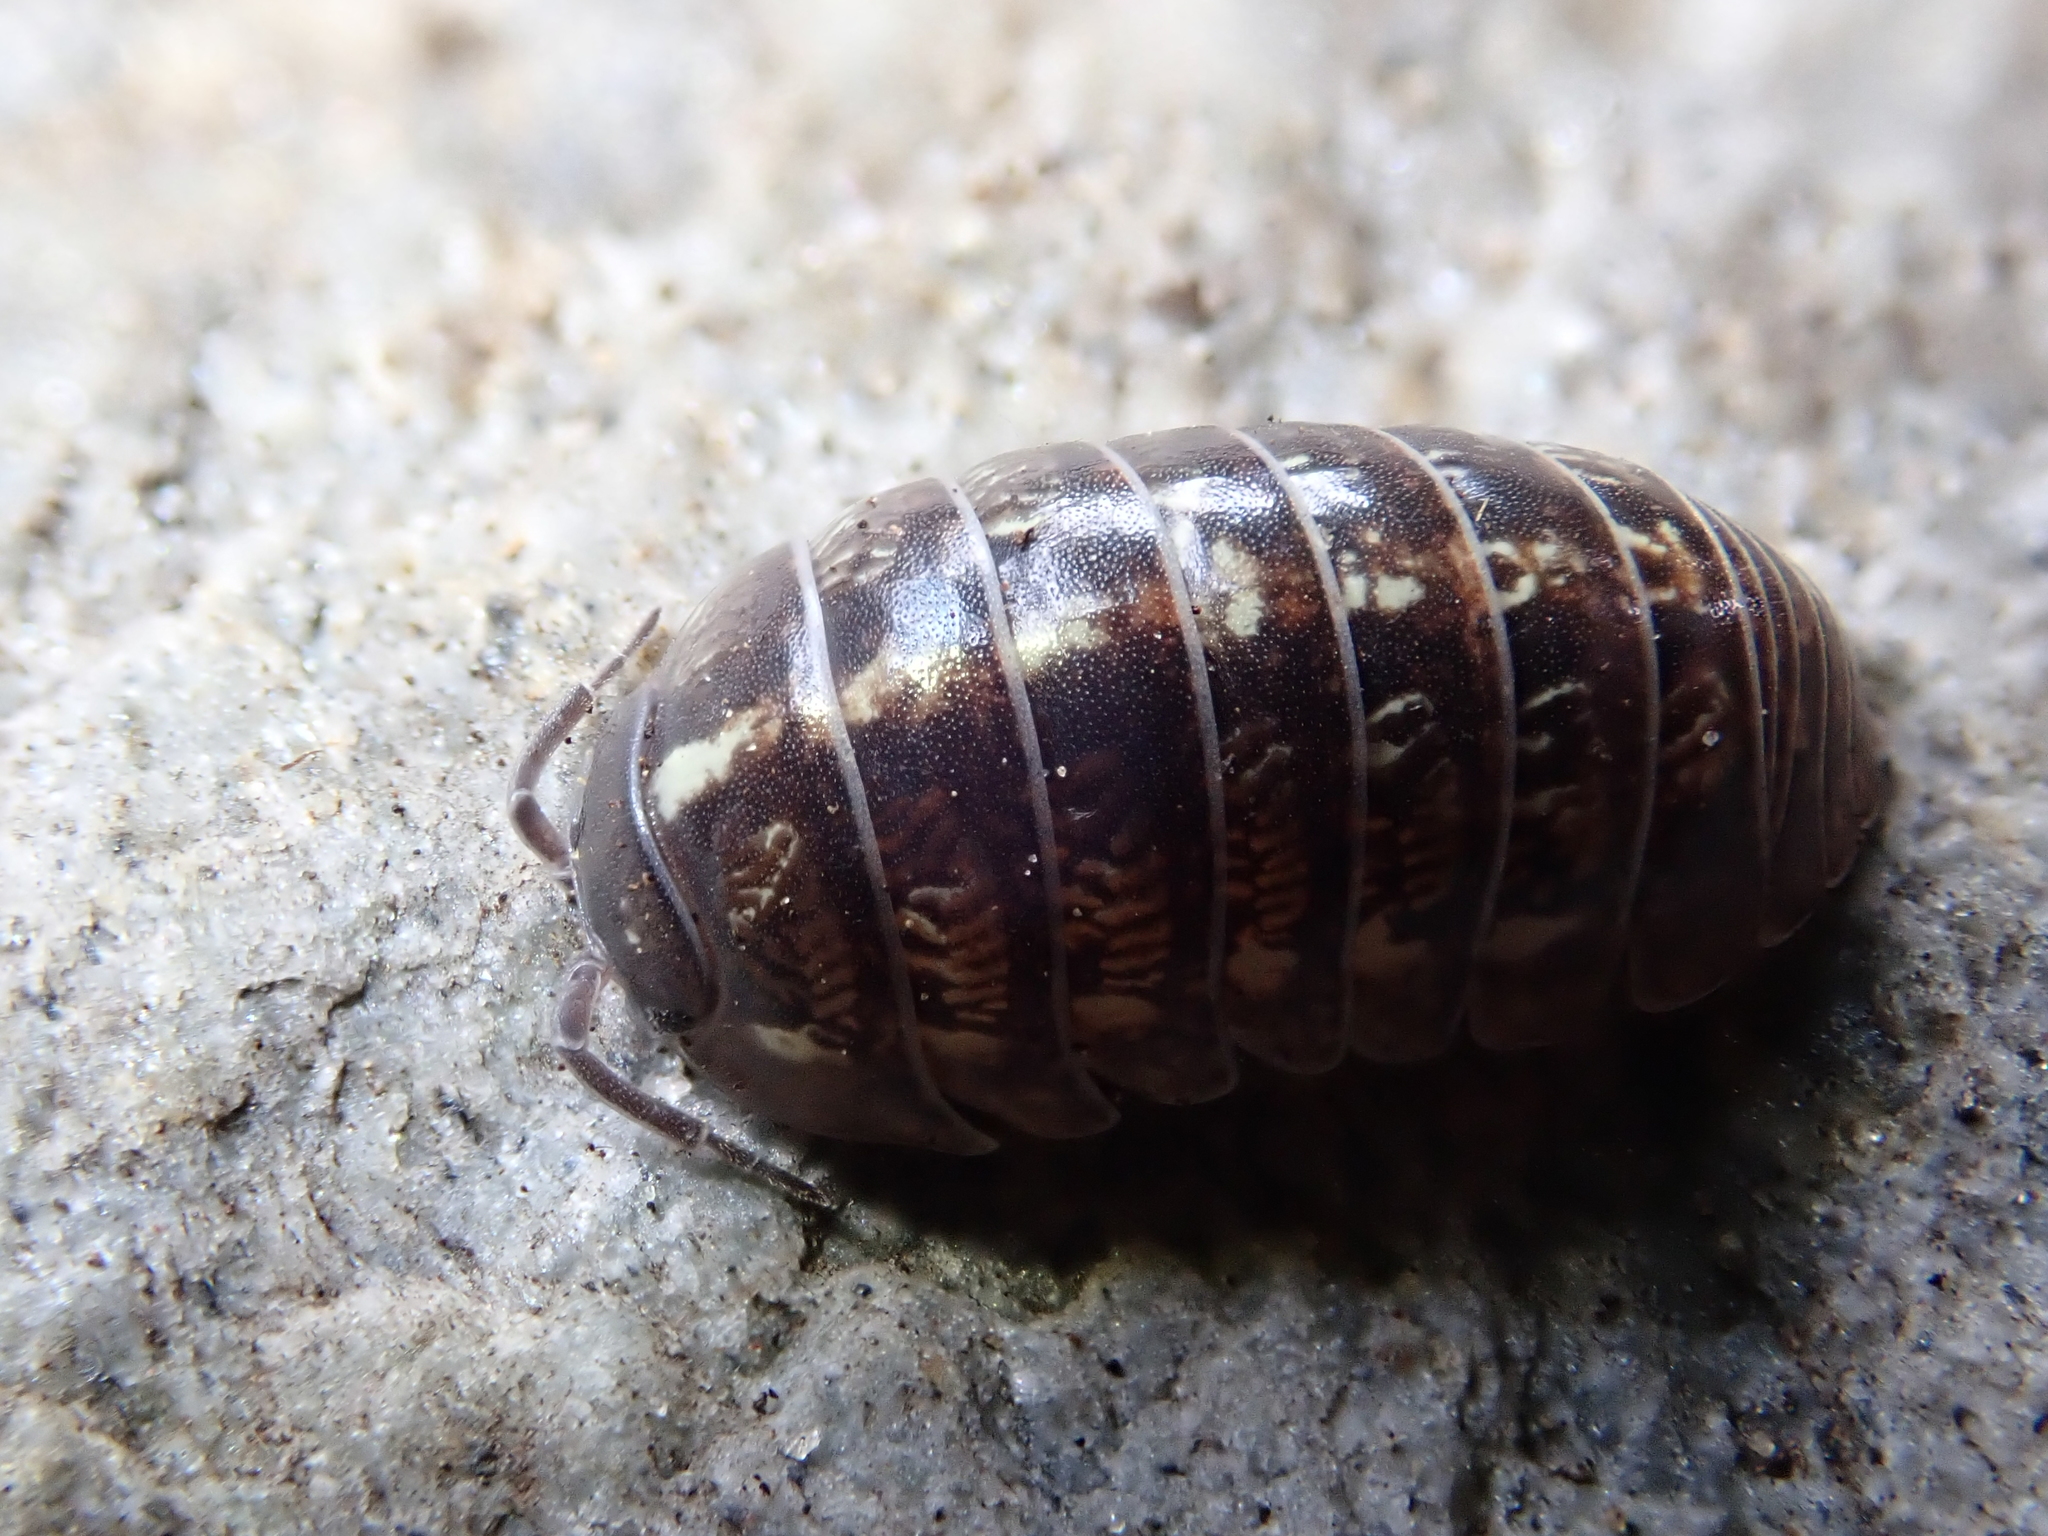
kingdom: Animalia
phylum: Arthropoda
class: Malacostraca
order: Isopoda
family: Armadillidiidae
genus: Armadillidium
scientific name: Armadillidium vulgare
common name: Common pill woodlouse
